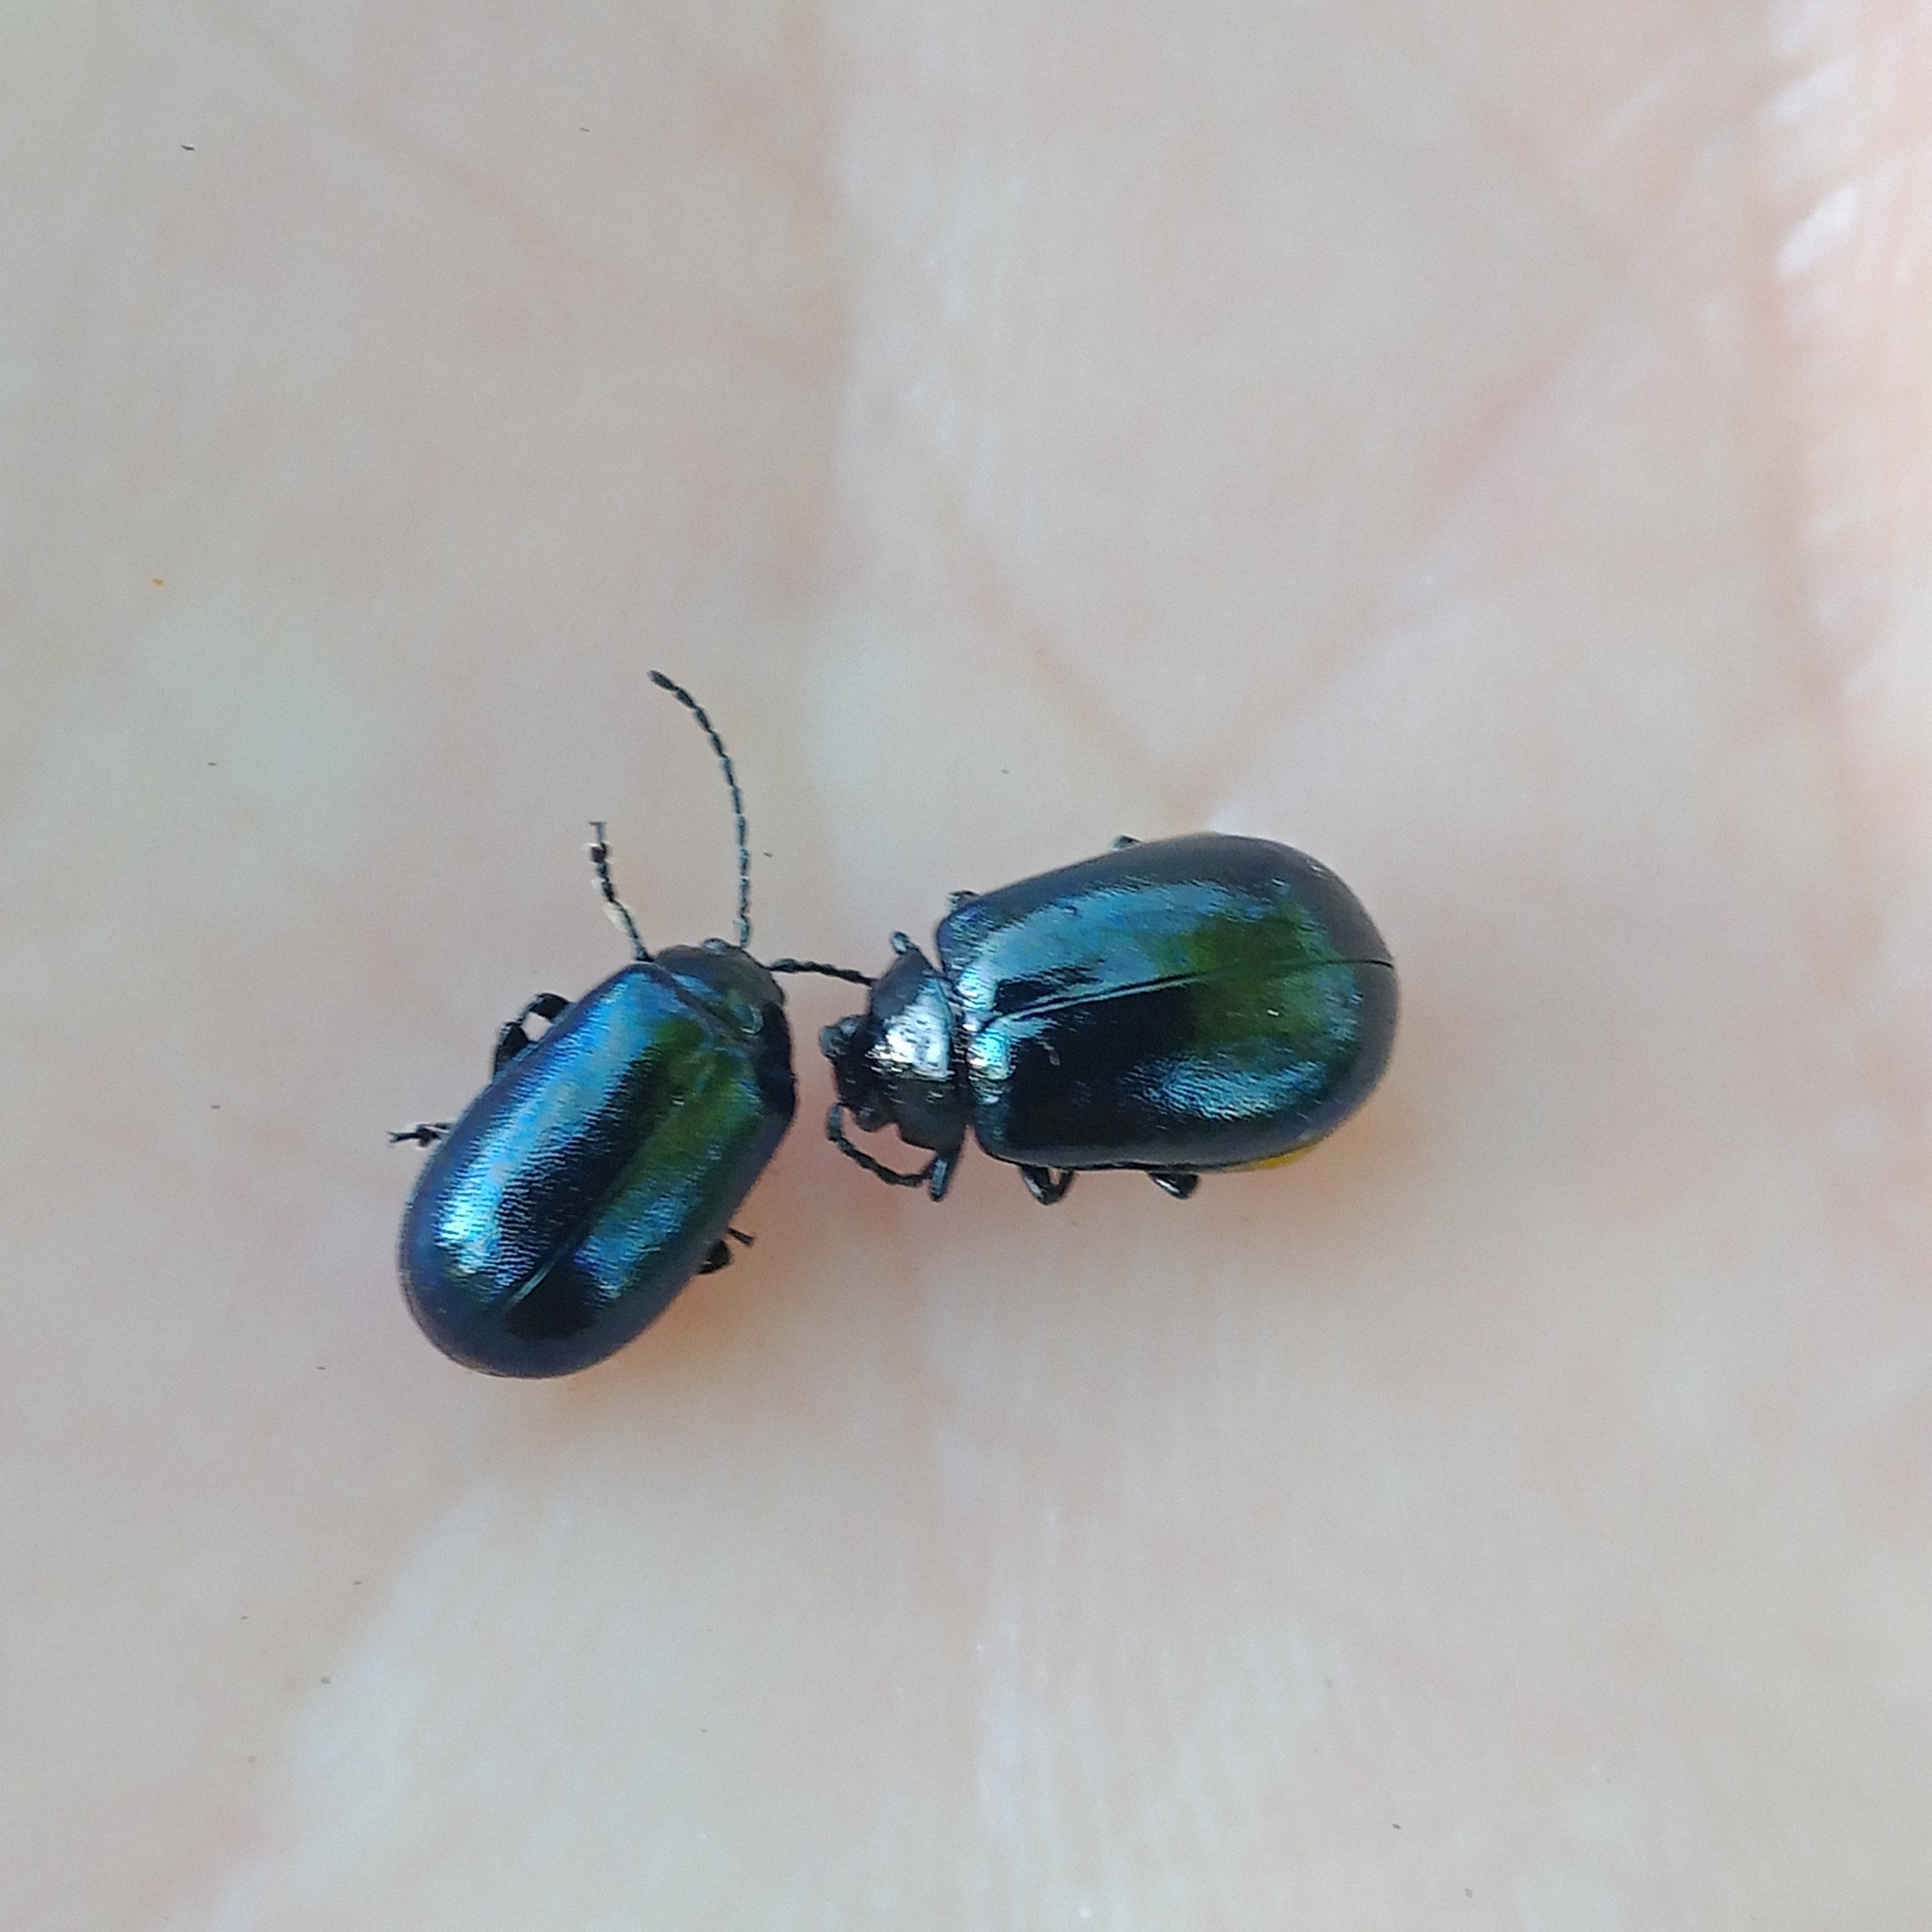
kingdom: Animalia
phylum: Arthropoda
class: Insecta
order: Coleoptera
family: Chrysomelidae
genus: Agelastica
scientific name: Agelastica alni
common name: Alder leaf beetle
